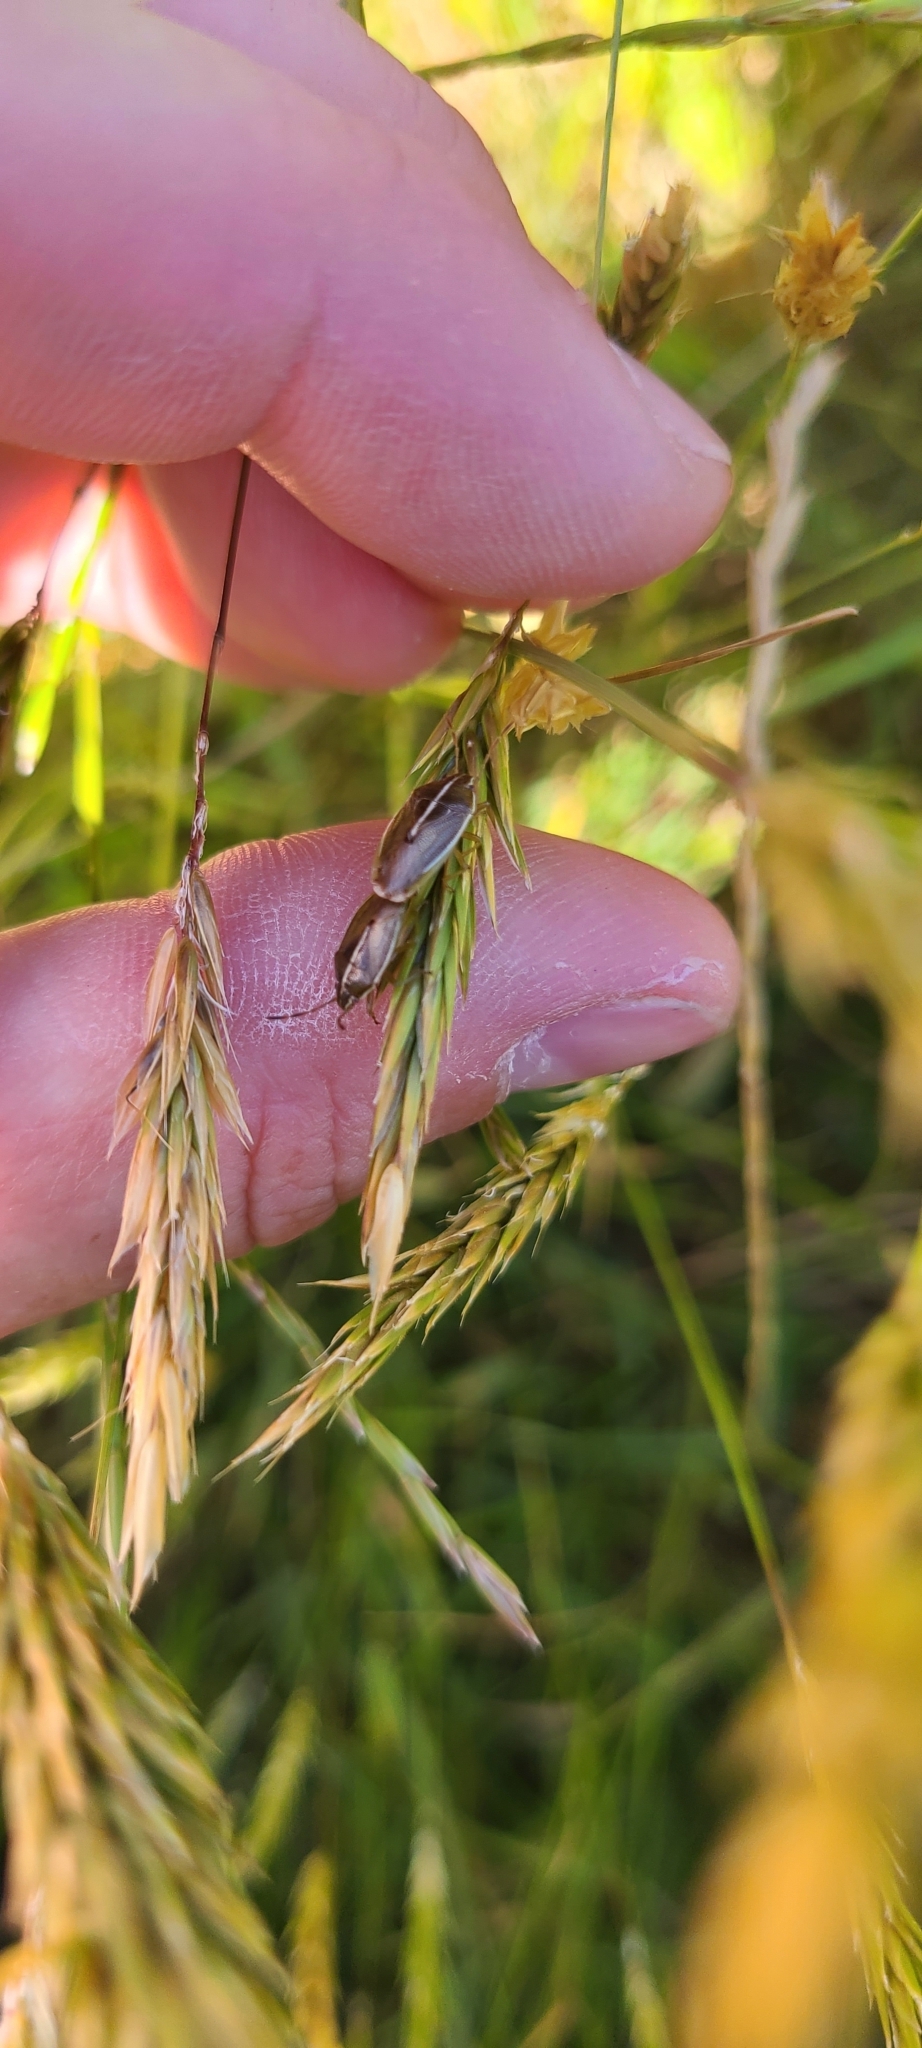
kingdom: Animalia
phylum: Arthropoda
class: Insecta
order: Hemiptera
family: Acanthosomatidae
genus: Rhopalimorpha
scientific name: Rhopalimorpha lineolaris
